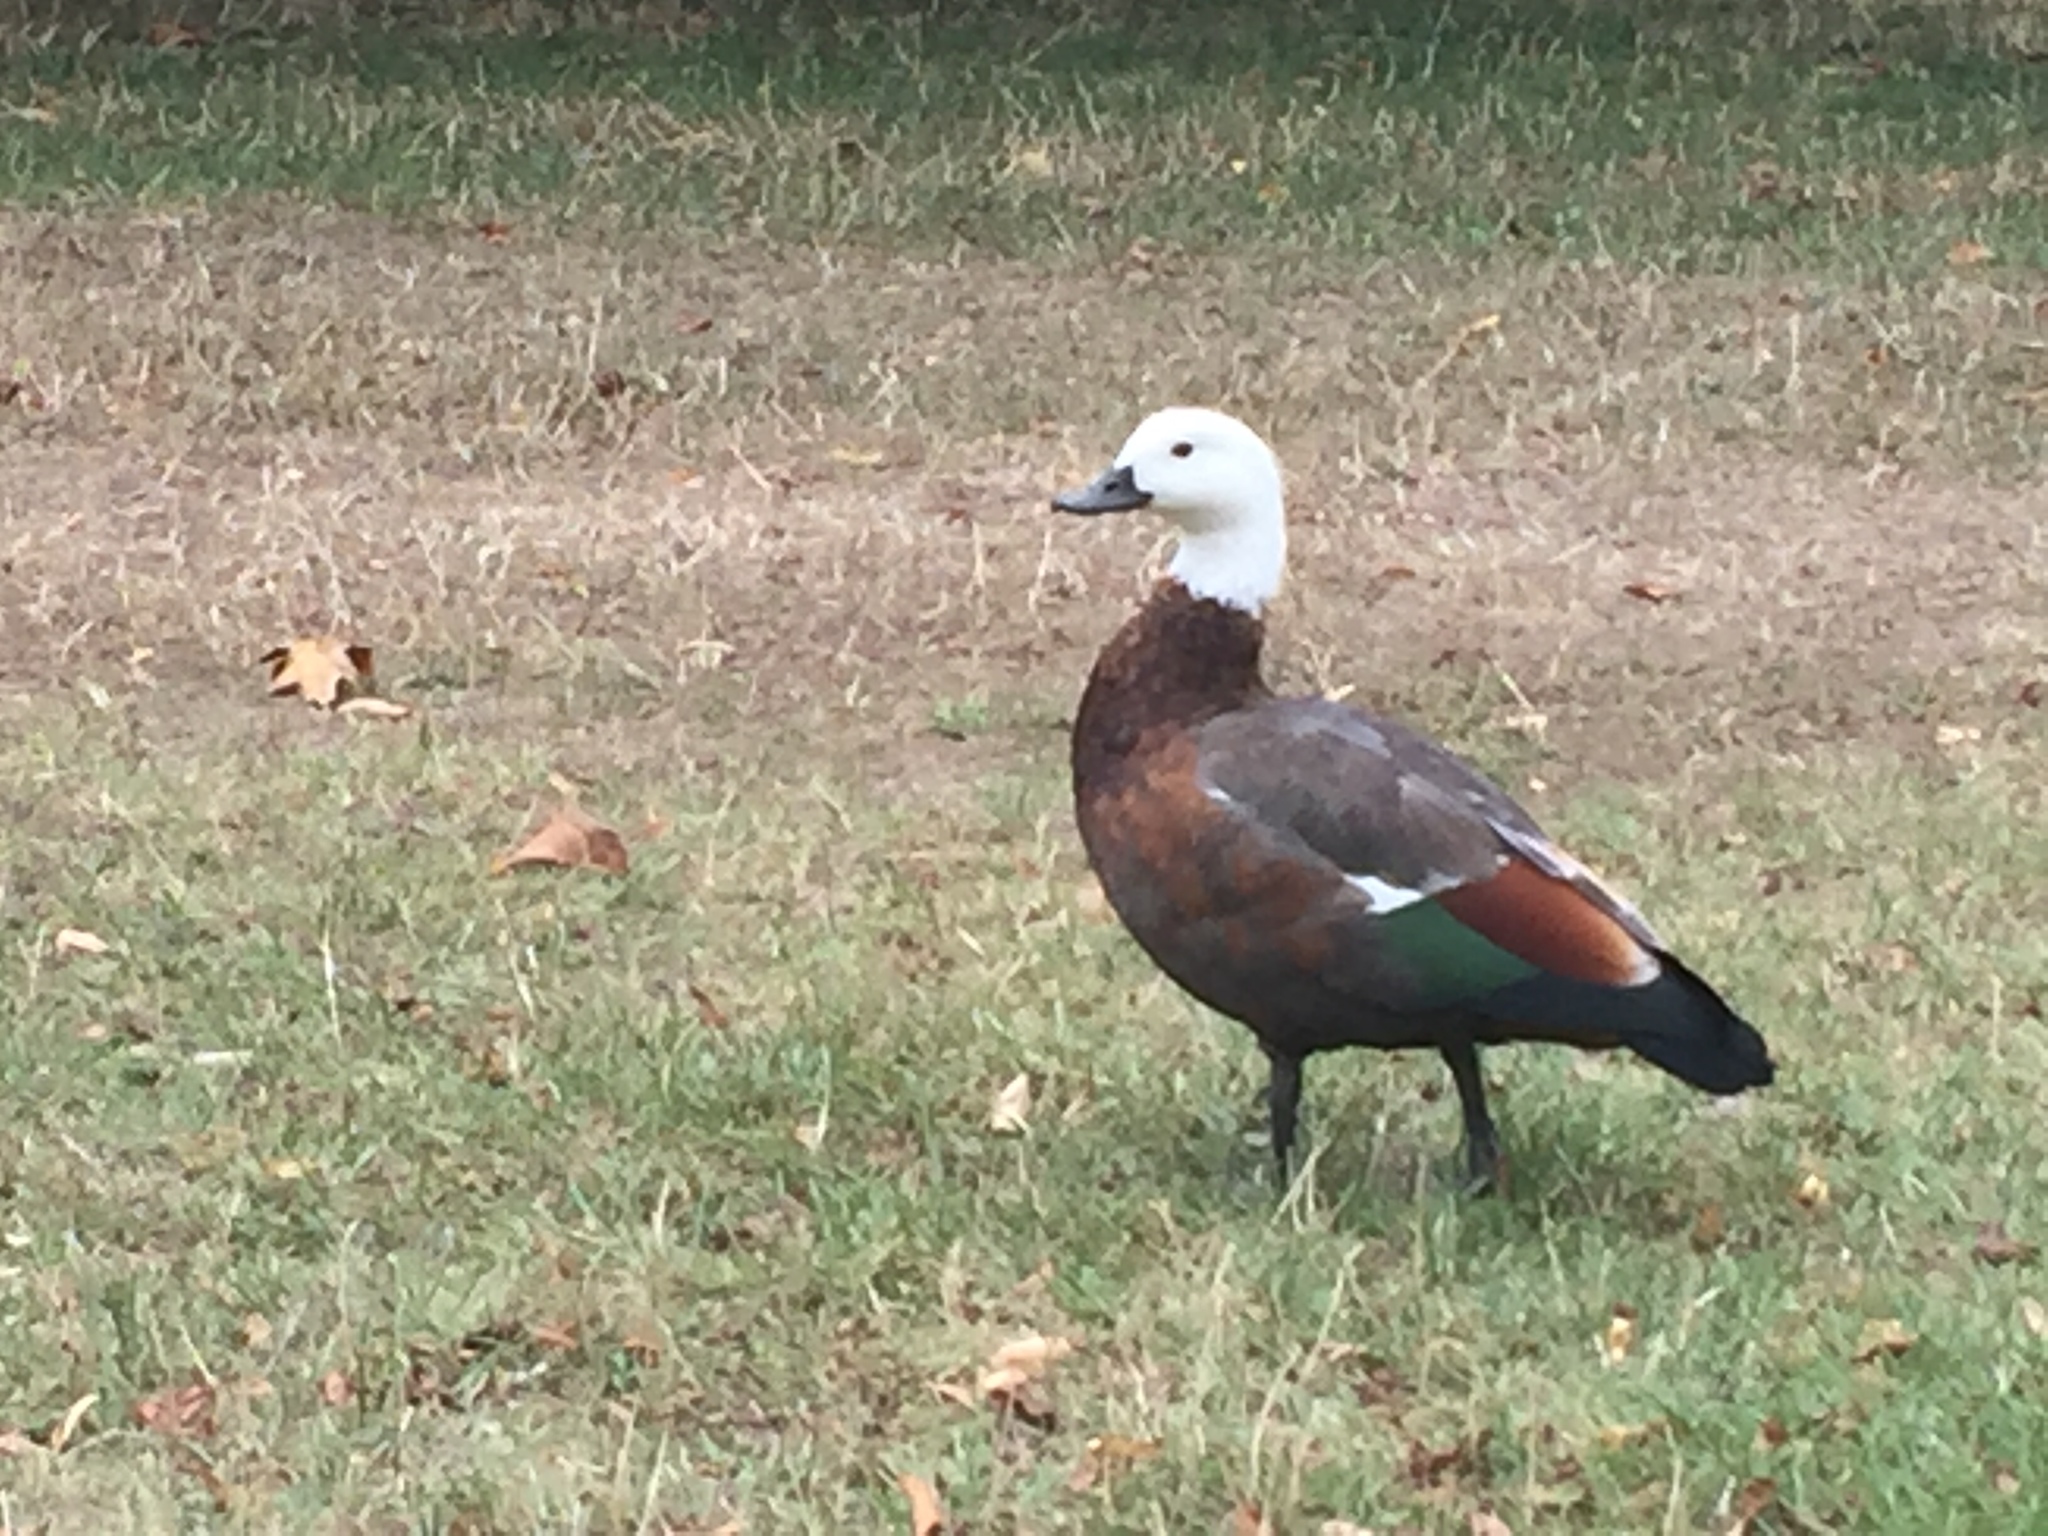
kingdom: Animalia
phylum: Chordata
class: Aves
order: Anseriformes
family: Anatidae
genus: Tadorna
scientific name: Tadorna variegata
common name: Paradise shelduck
